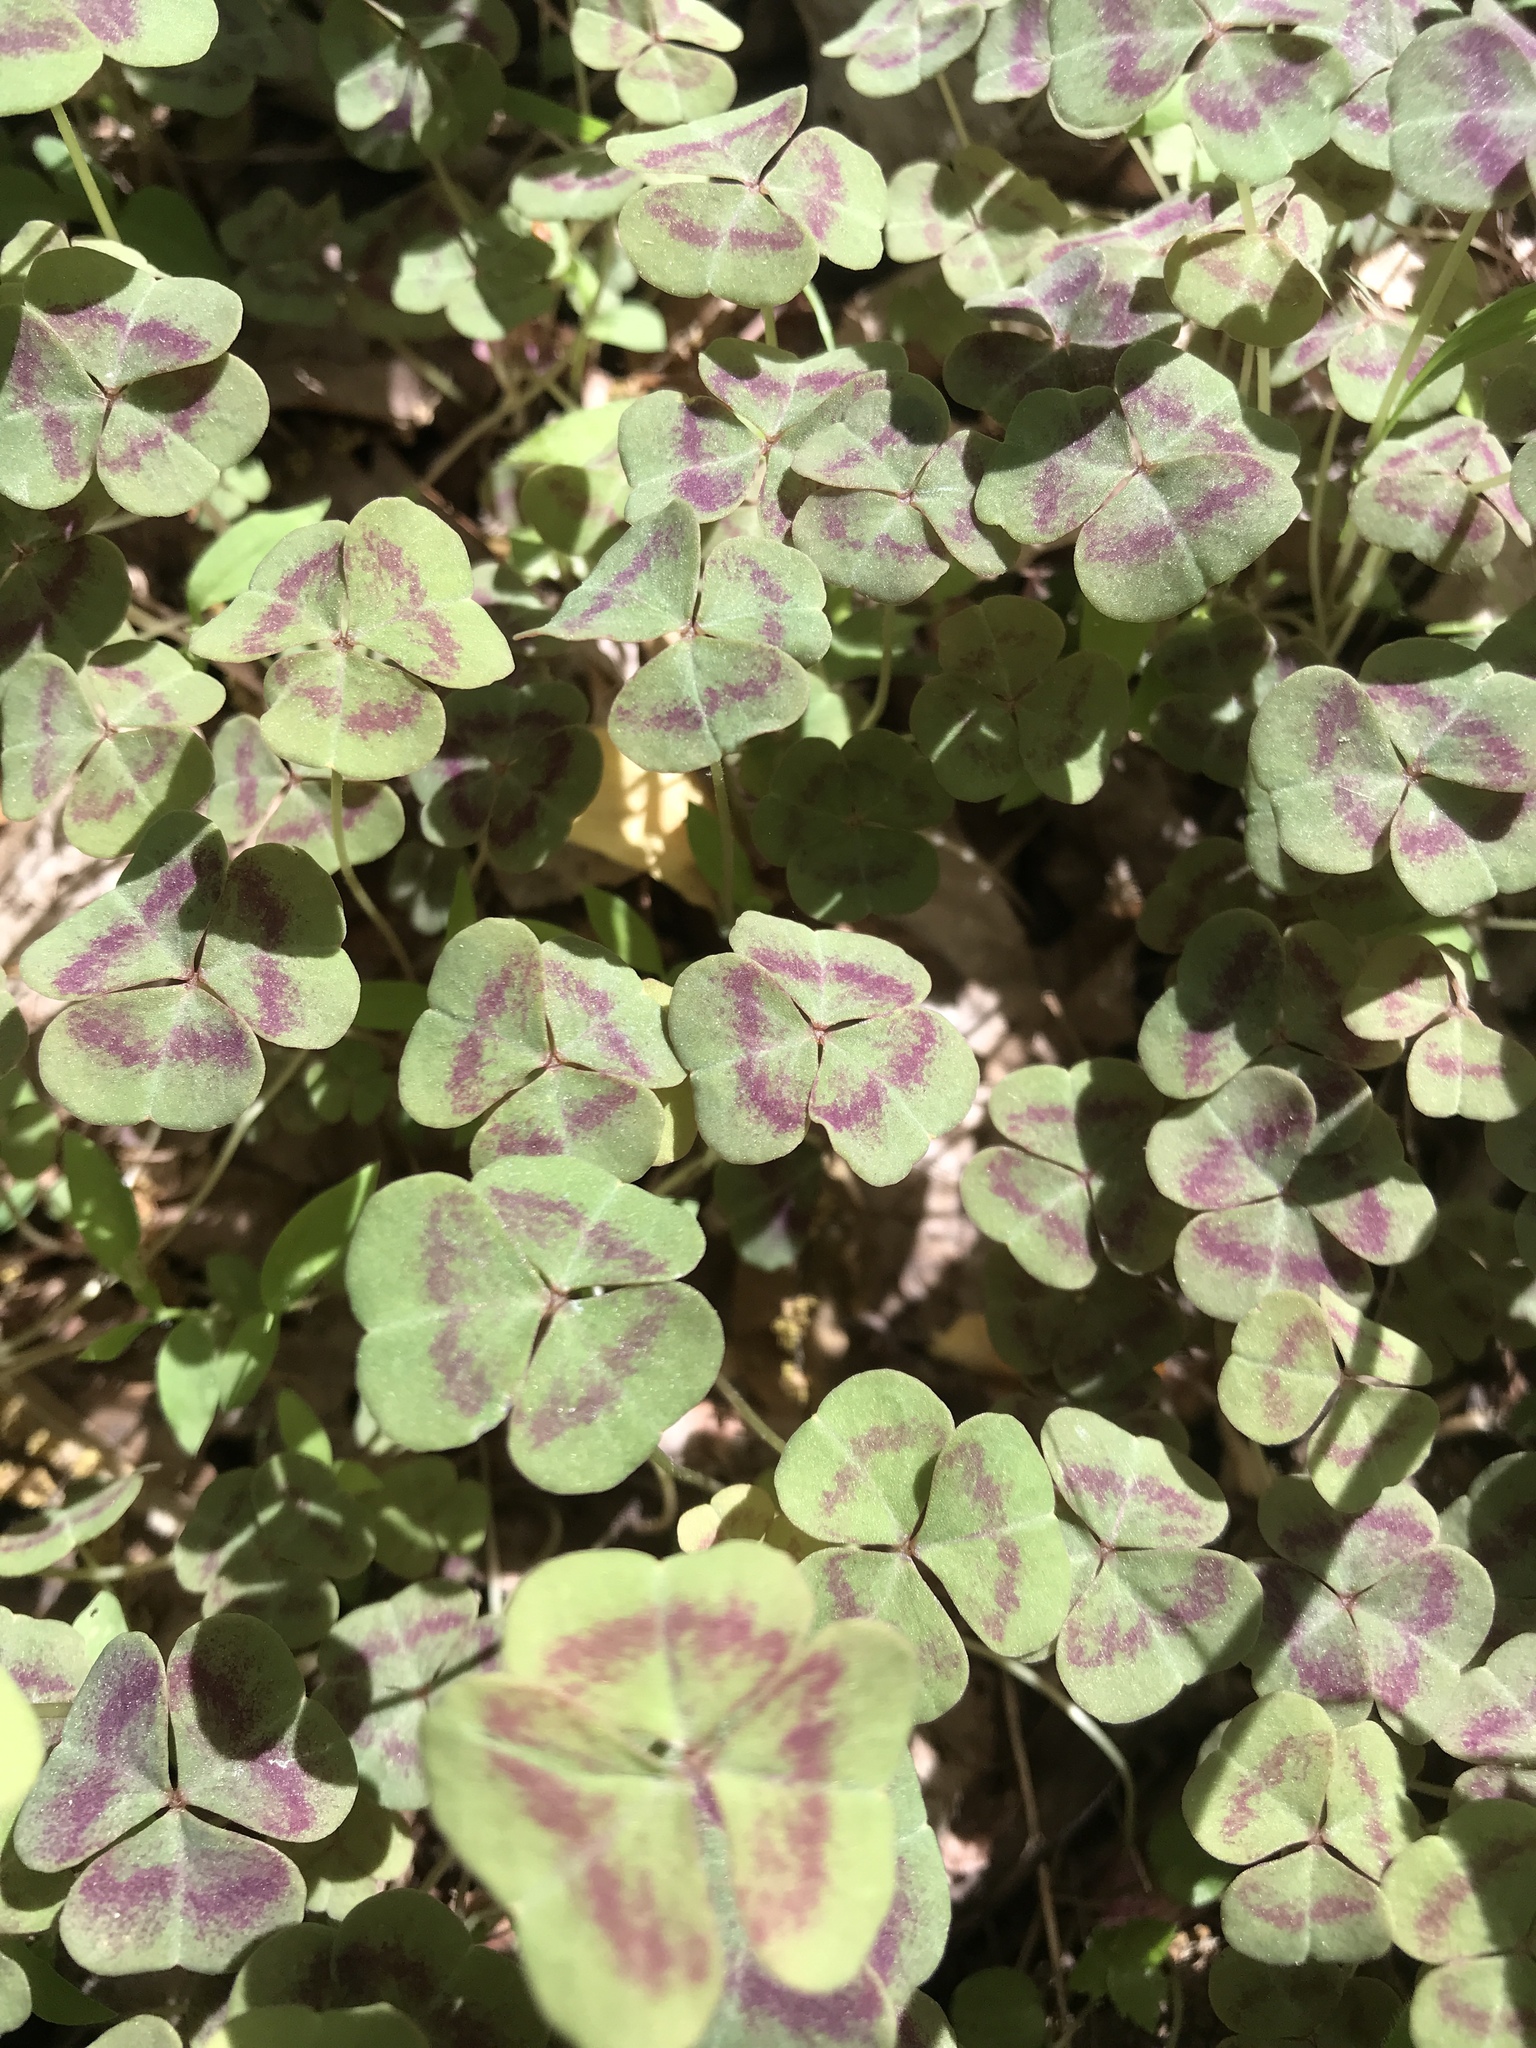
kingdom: Plantae
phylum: Tracheophyta
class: Magnoliopsida
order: Oxalidales
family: Oxalidaceae
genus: Oxalis
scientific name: Oxalis violacea
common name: Violet wood-sorrel
